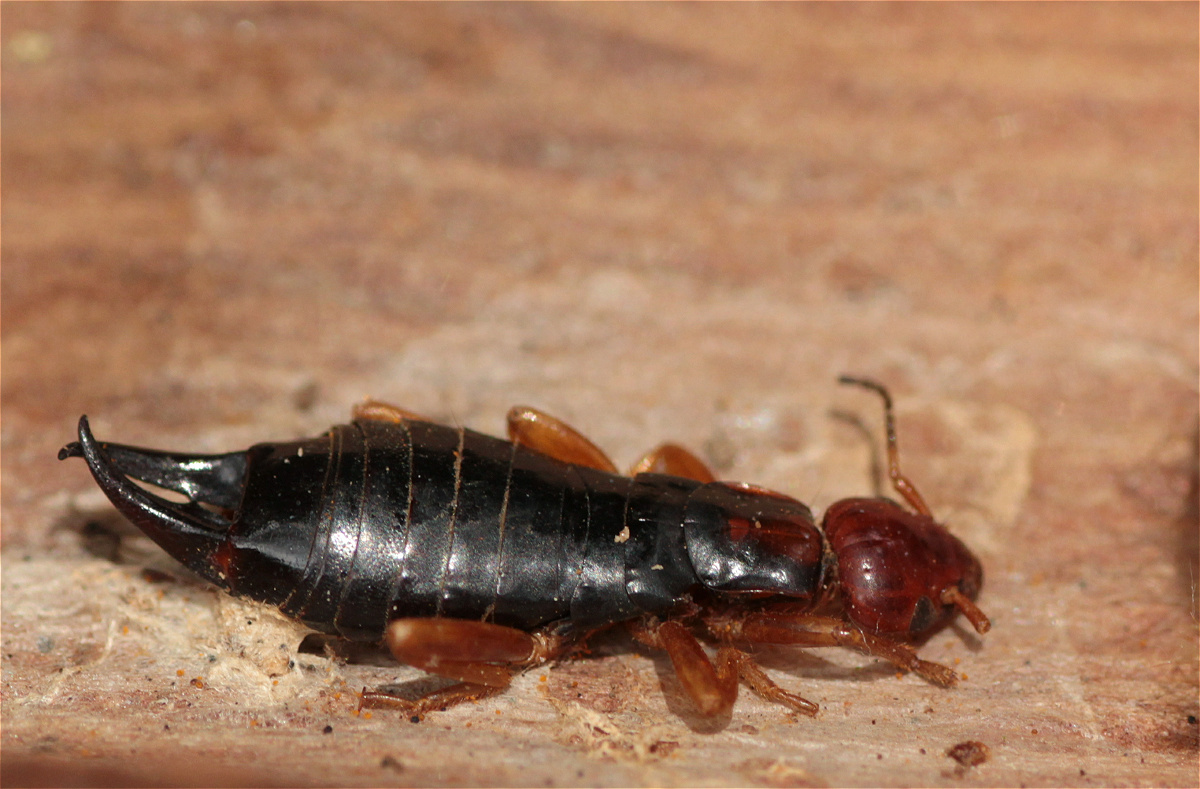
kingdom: Animalia
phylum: Arthropoda
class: Insecta
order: Dermaptera
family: Anisolabididae
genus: Carcinophora
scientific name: Carcinophora festae
